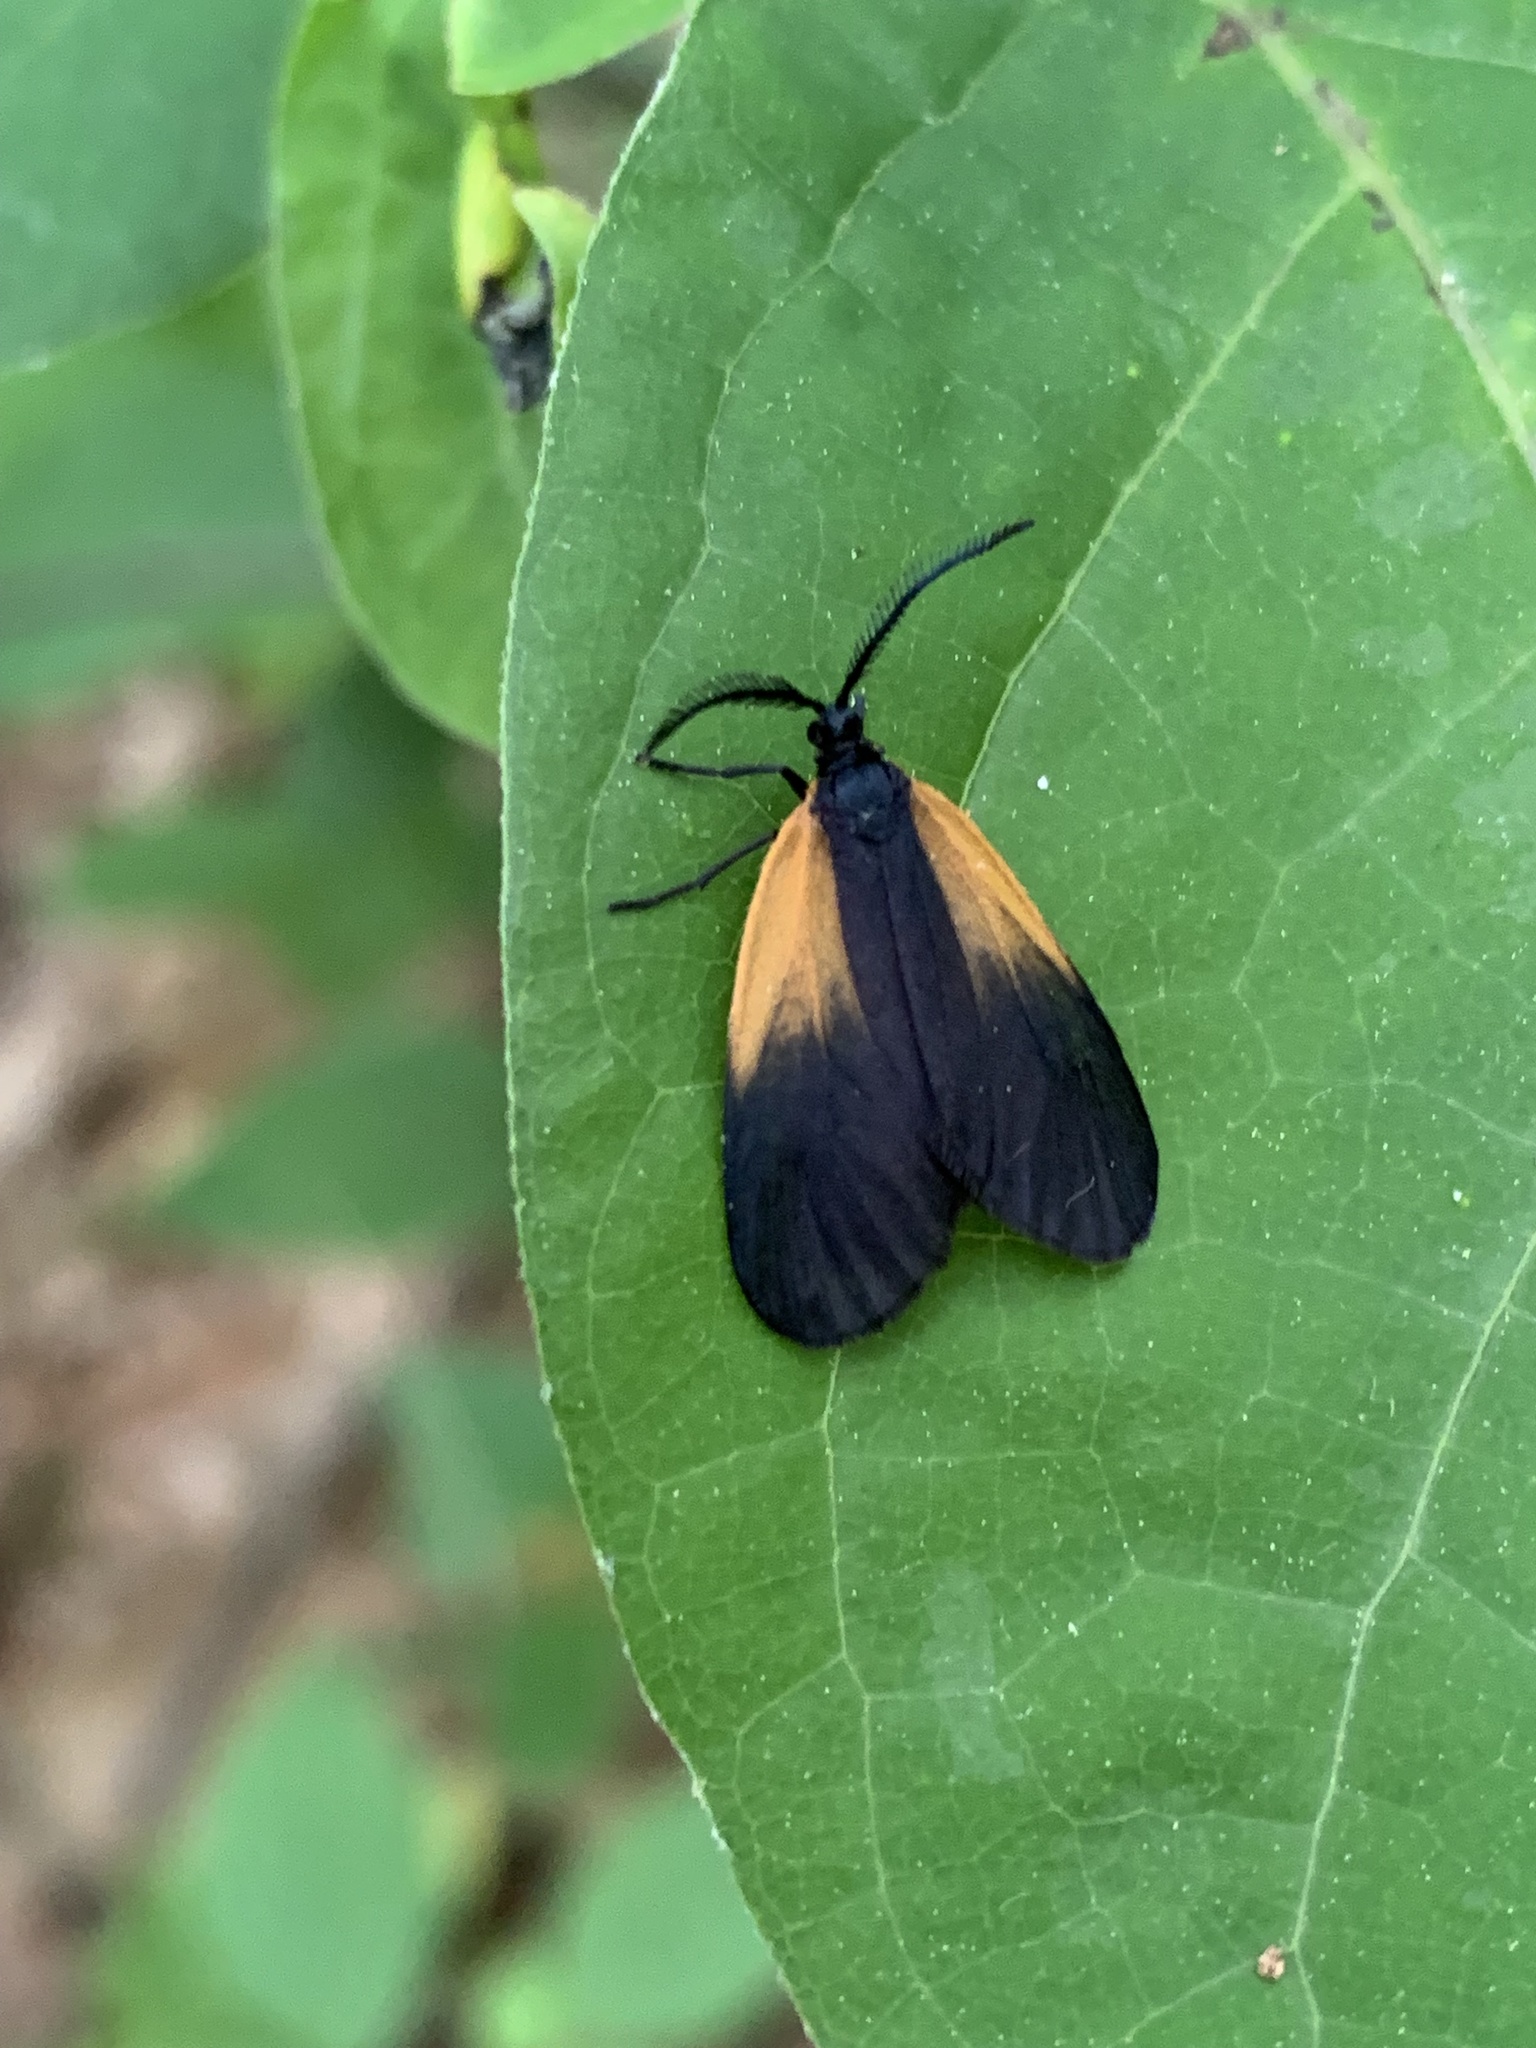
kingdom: Animalia
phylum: Arthropoda
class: Insecta
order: Lepidoptera
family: Zygaenidae
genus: Malthaca
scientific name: Malthaca dimidiata
